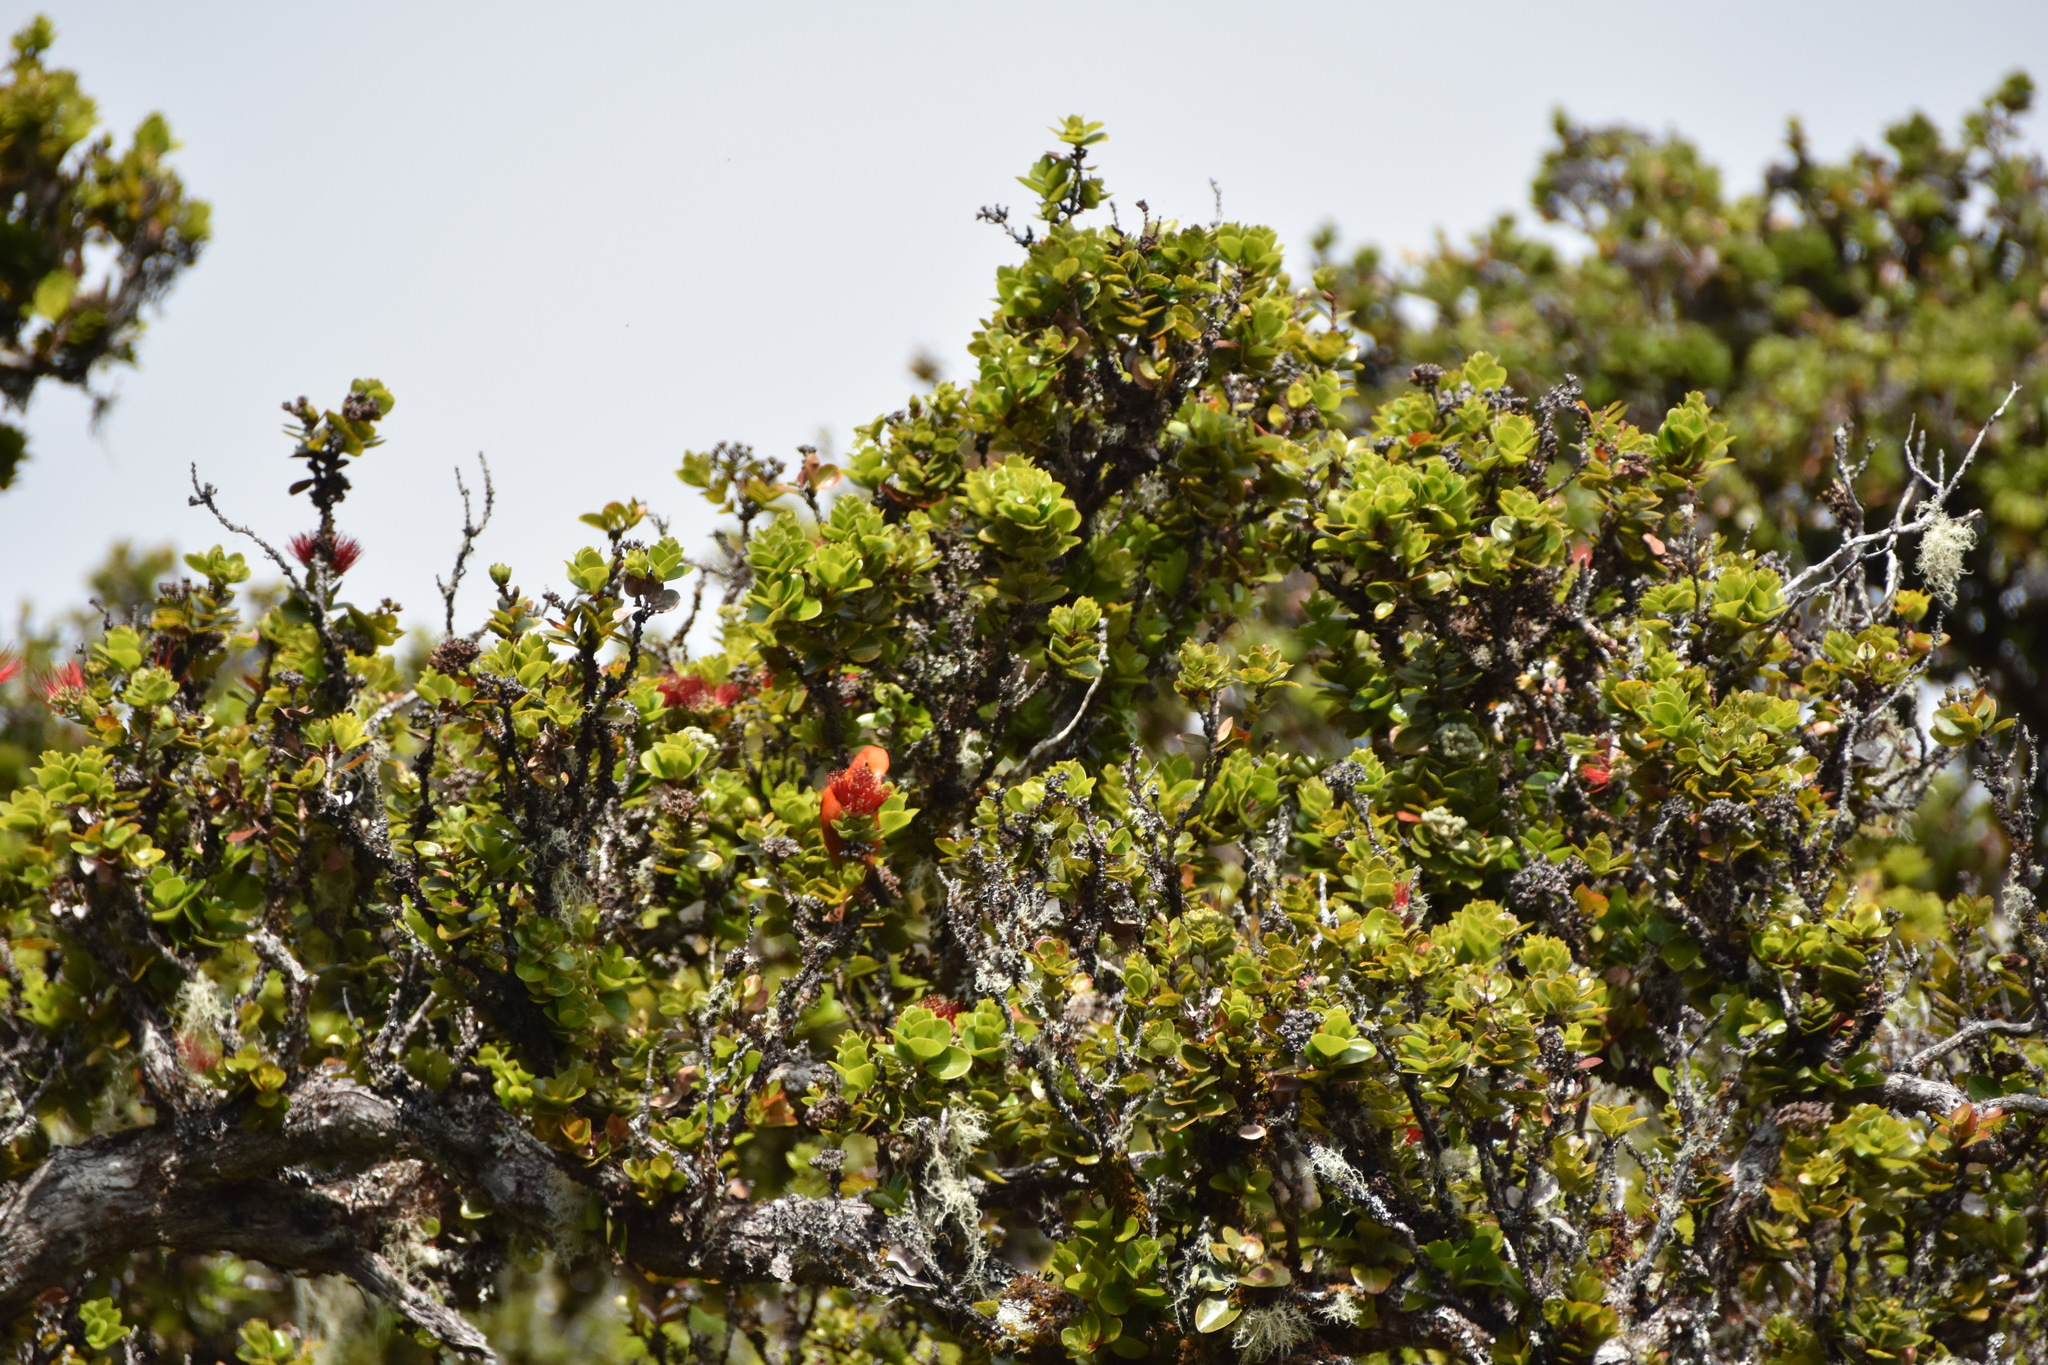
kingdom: Animalia
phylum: Chordata
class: Aves
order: Passeriformes
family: Fringillidae
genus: Vestiaria
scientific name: Vestiaria coccinea
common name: Iiwi
